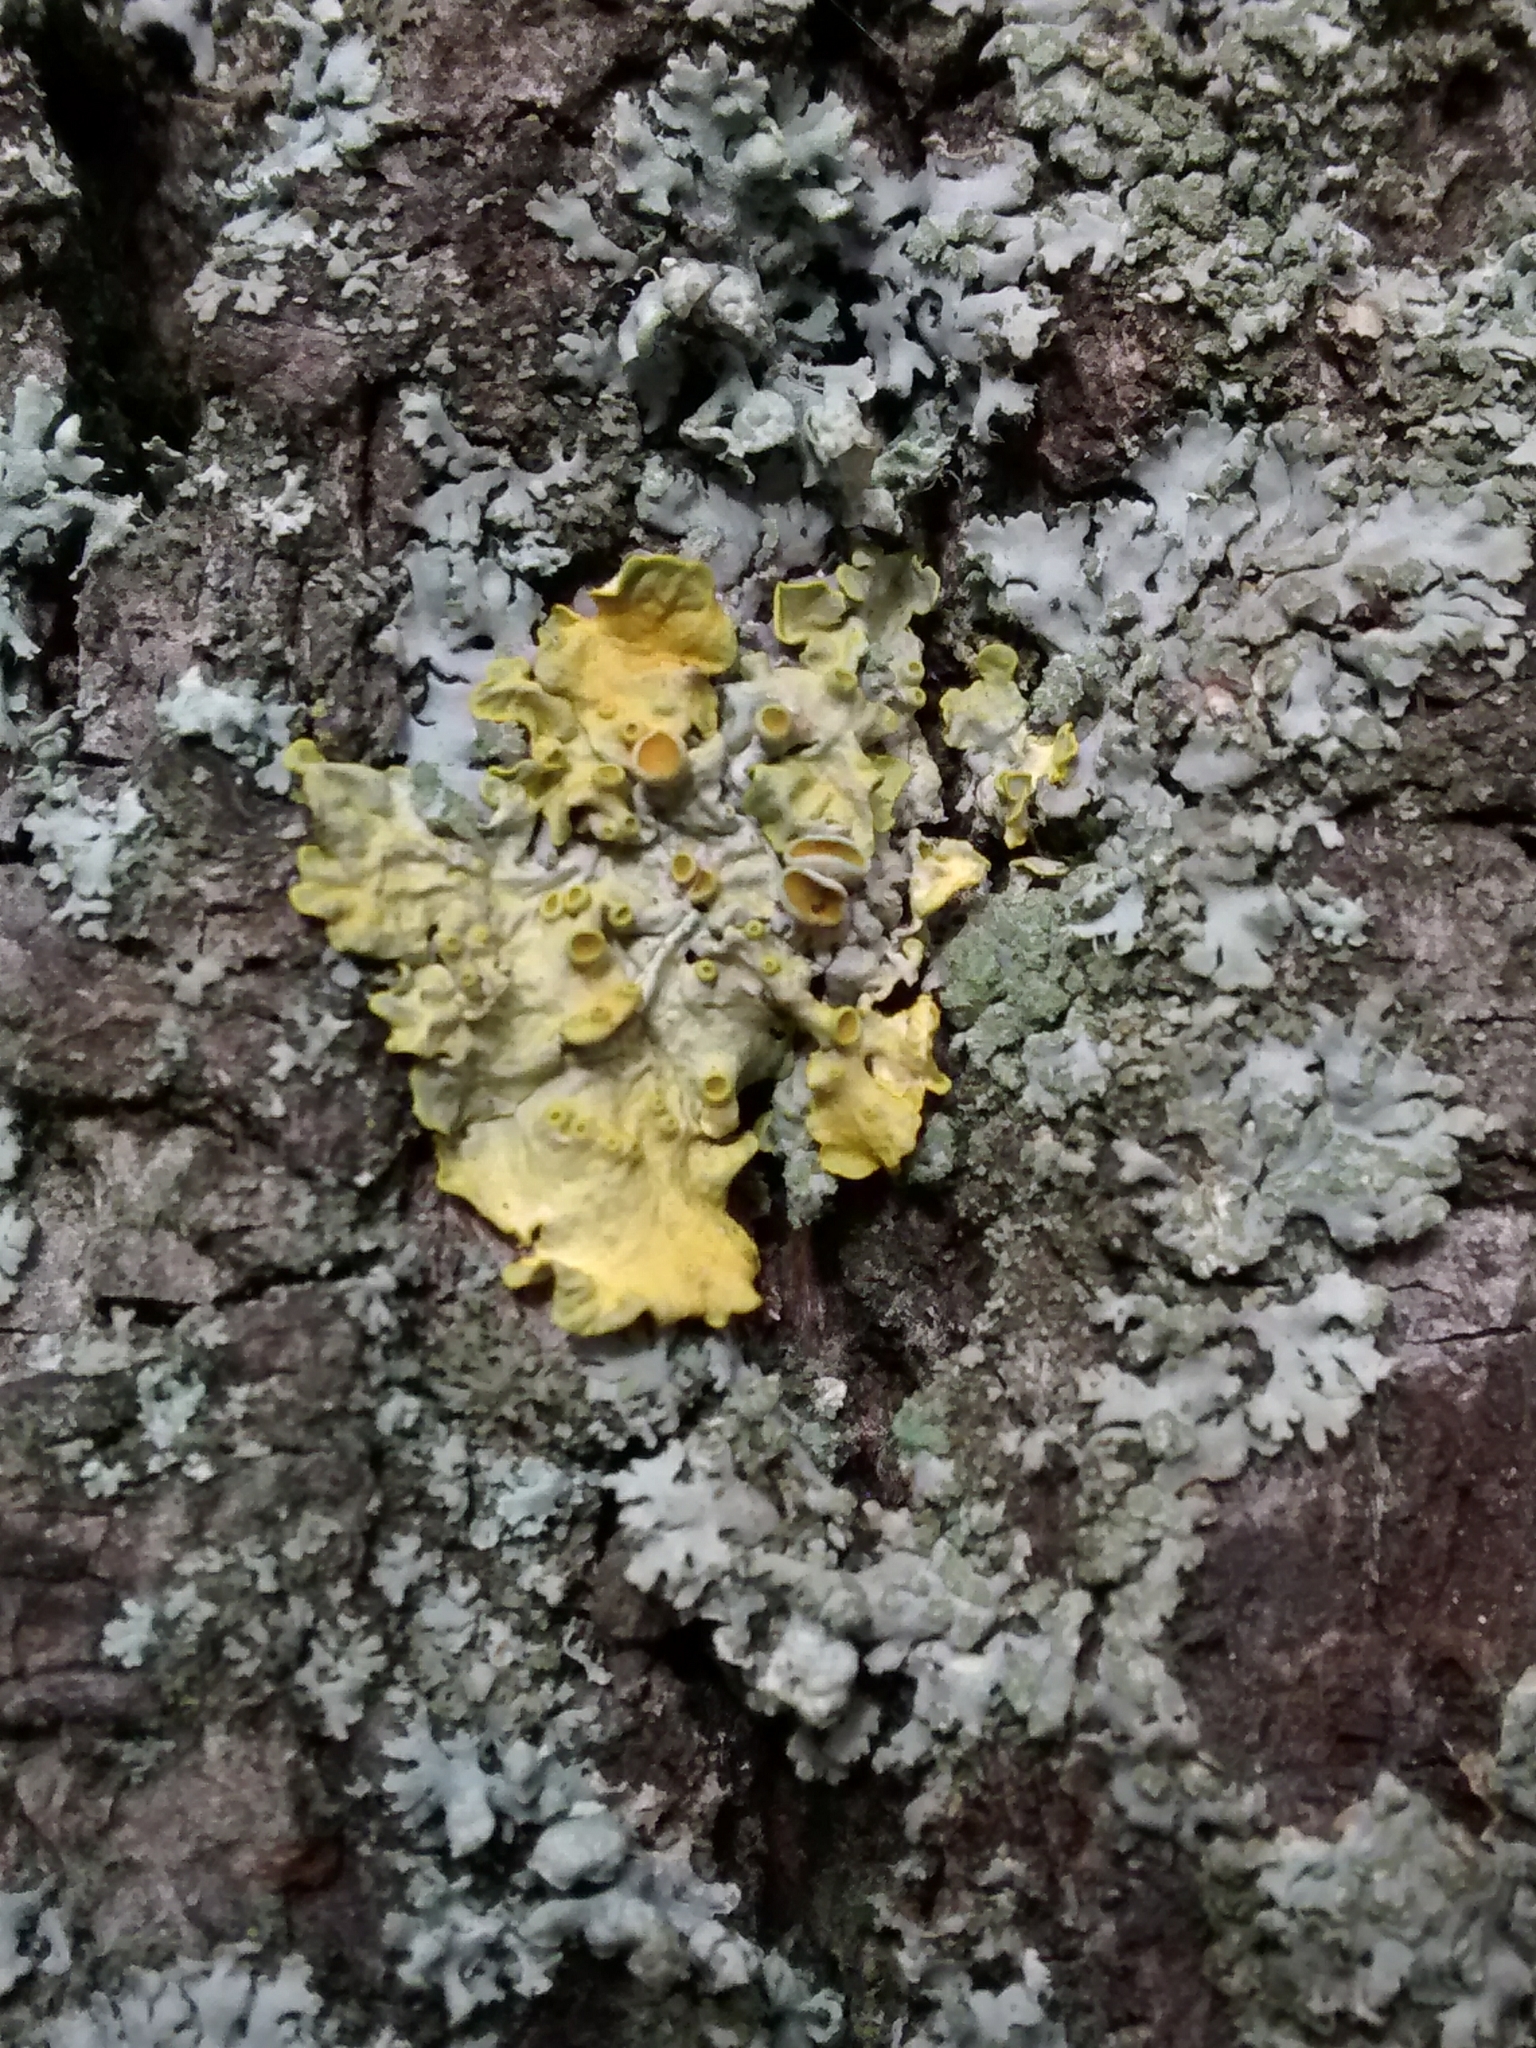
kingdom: Fungi
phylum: Ascomycota
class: Lecanoromycetes
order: Teloschistales
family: Teloschistaceae
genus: Xanthoria
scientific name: Xanthoria parietina
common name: Common orange lichen
